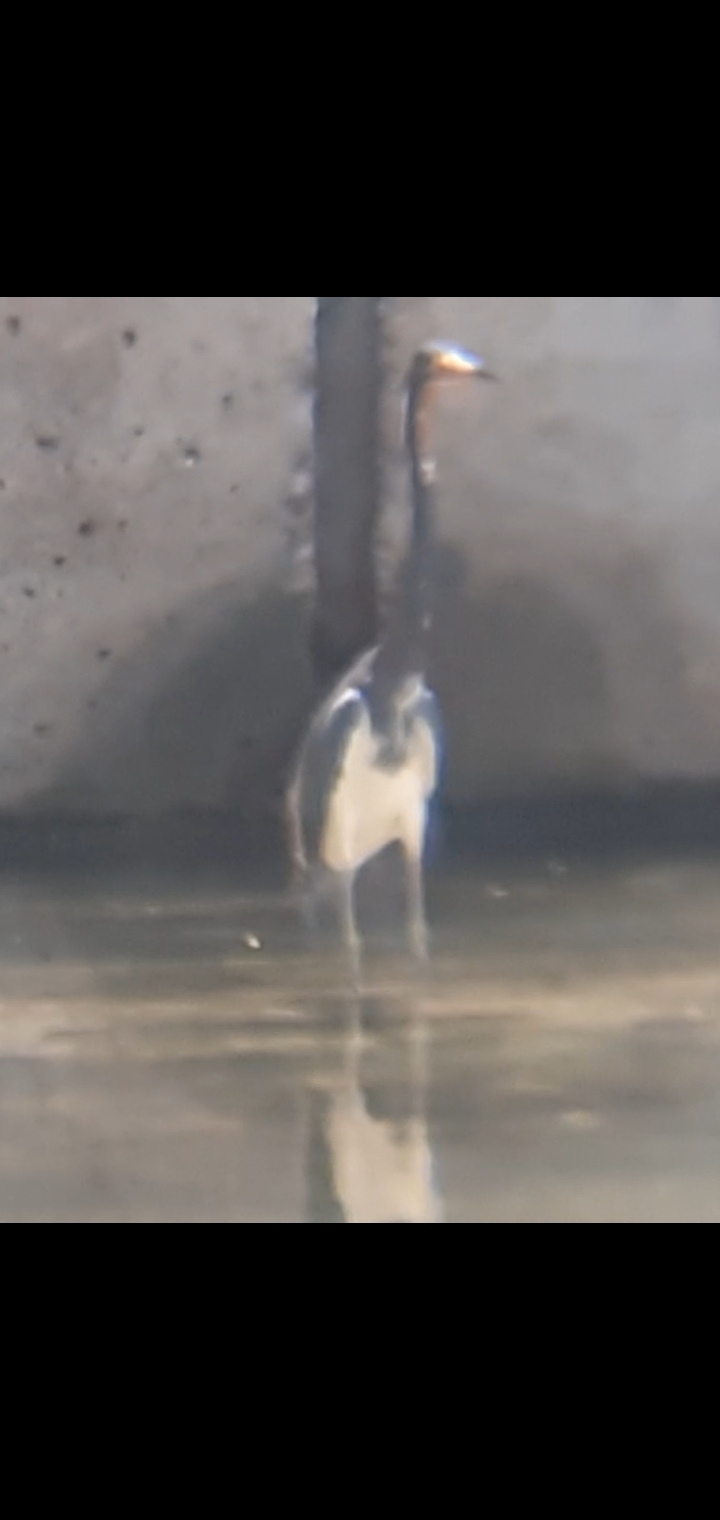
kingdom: Animalia
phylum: Chordata
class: Aves
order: Pelecaniformes
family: Ardeidae
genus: Egretta
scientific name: Egretta tricolor
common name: Tricolored heron
